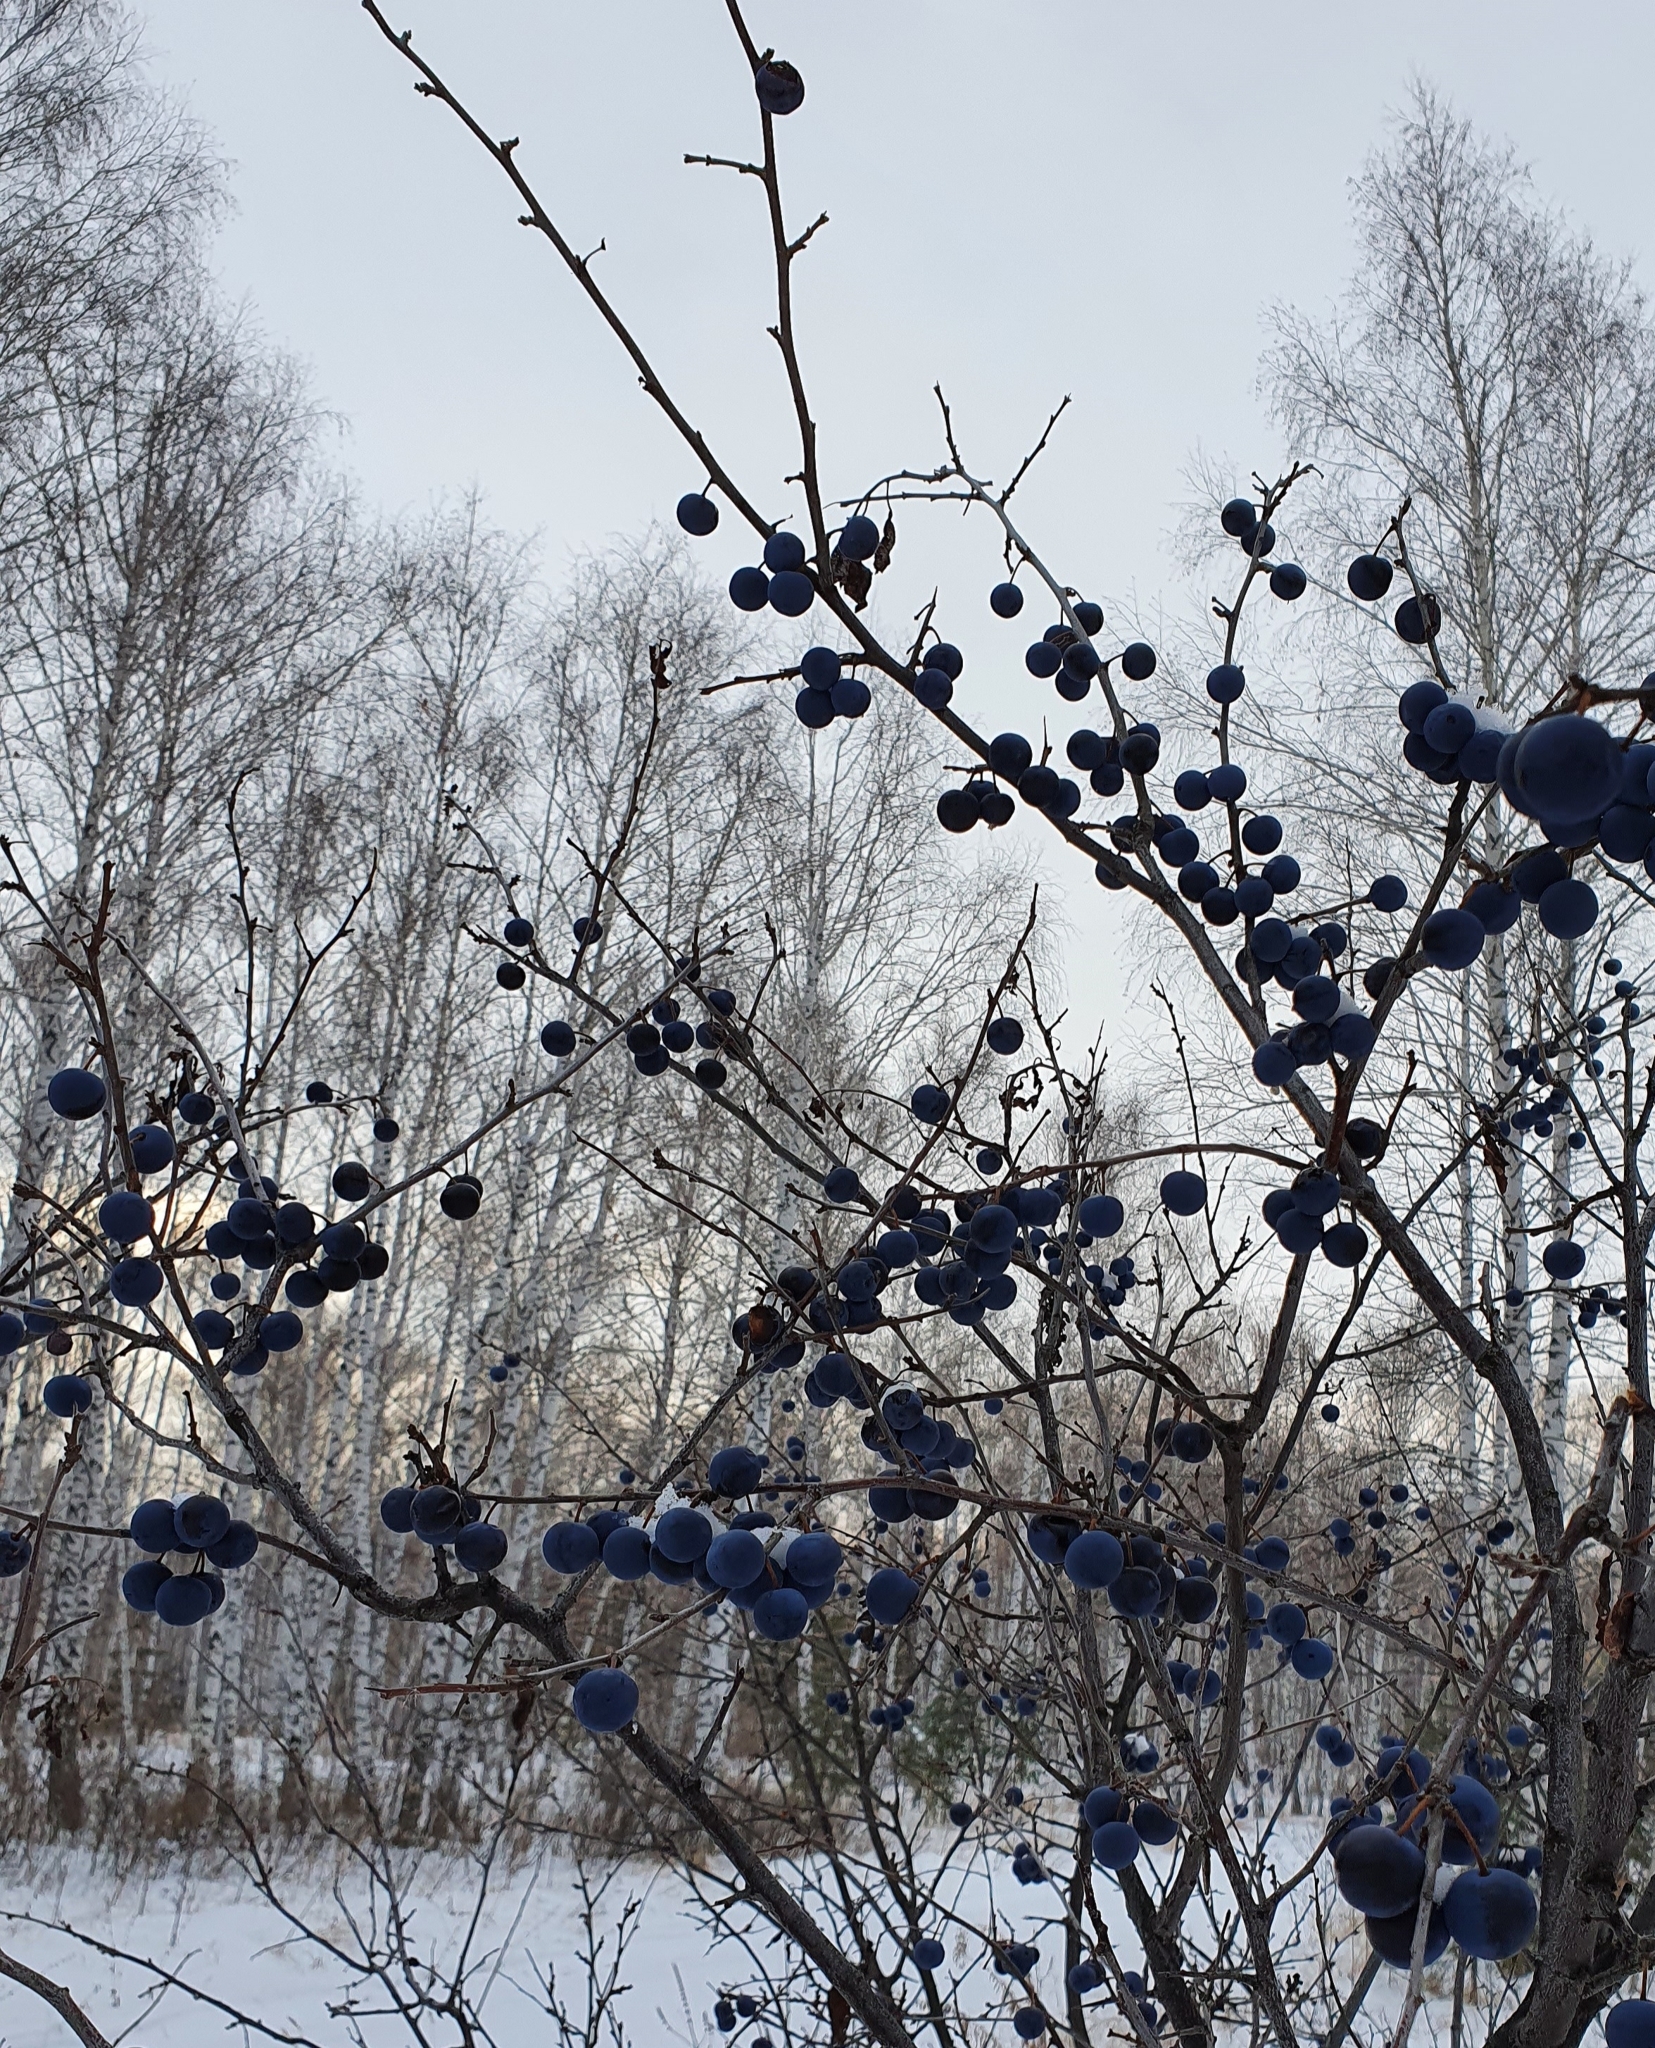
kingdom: Plantae
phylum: Tracheophyta
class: Magnoliopsida
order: Rosales
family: Rosaceae
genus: Prunus
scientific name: Prunus spinosa
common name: Blackthorn
